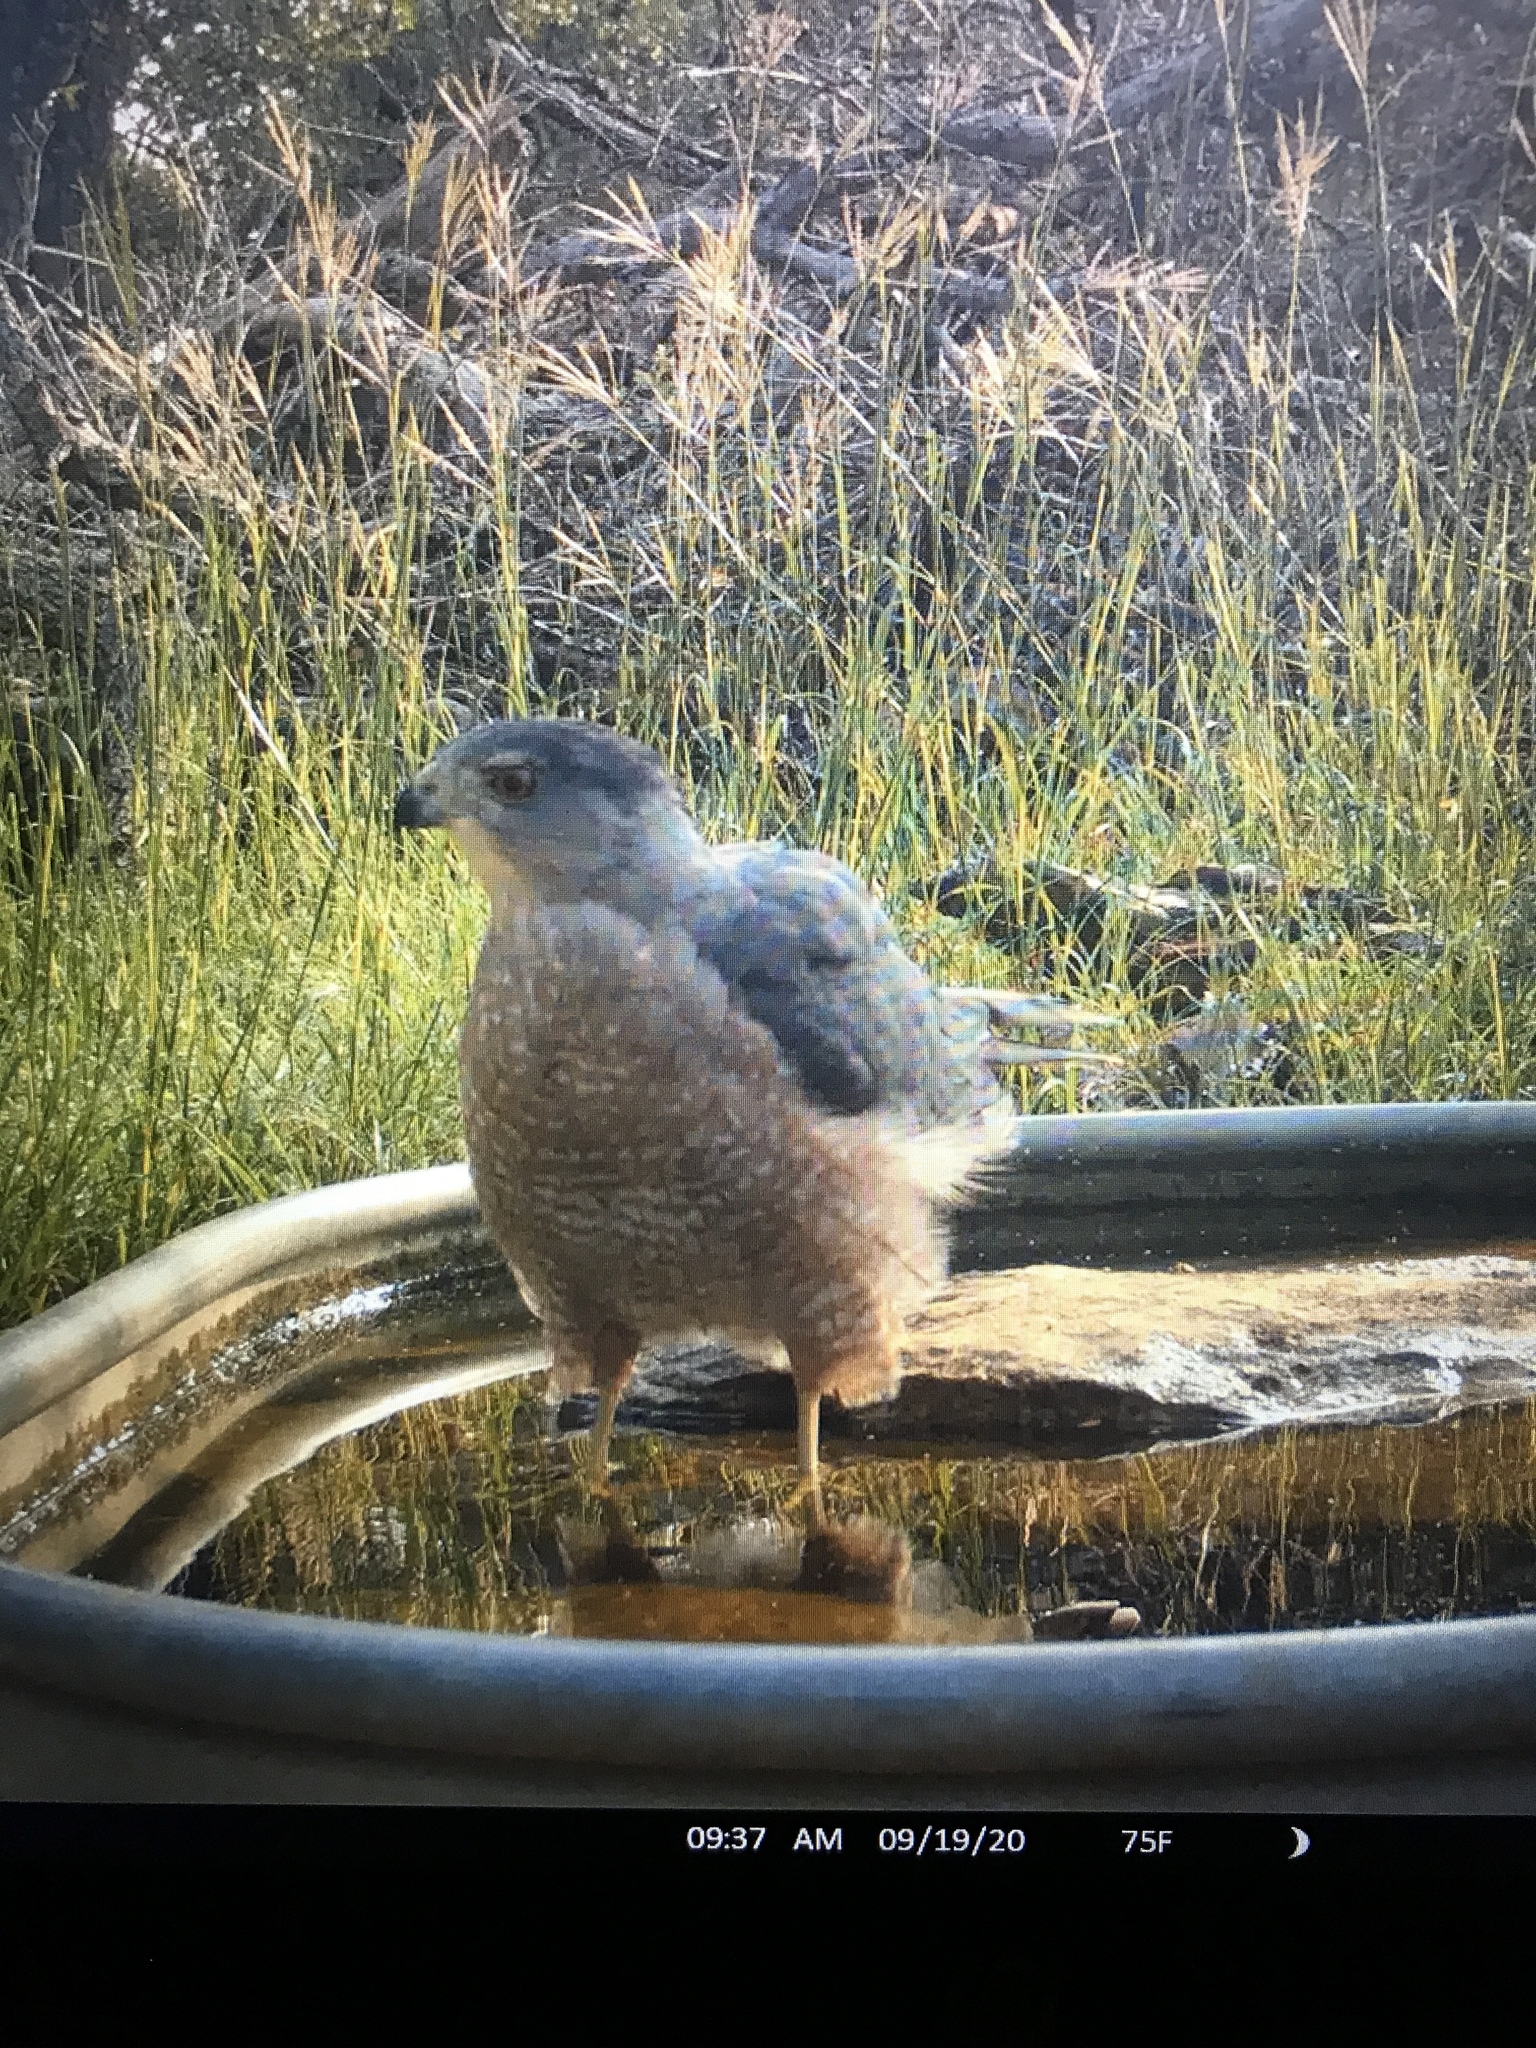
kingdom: Animalia
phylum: Chordata
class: Aves
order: Accipitriformes
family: Accipitridae
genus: Accipiter
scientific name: Accipiter cooperii
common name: Cooper's hawk
